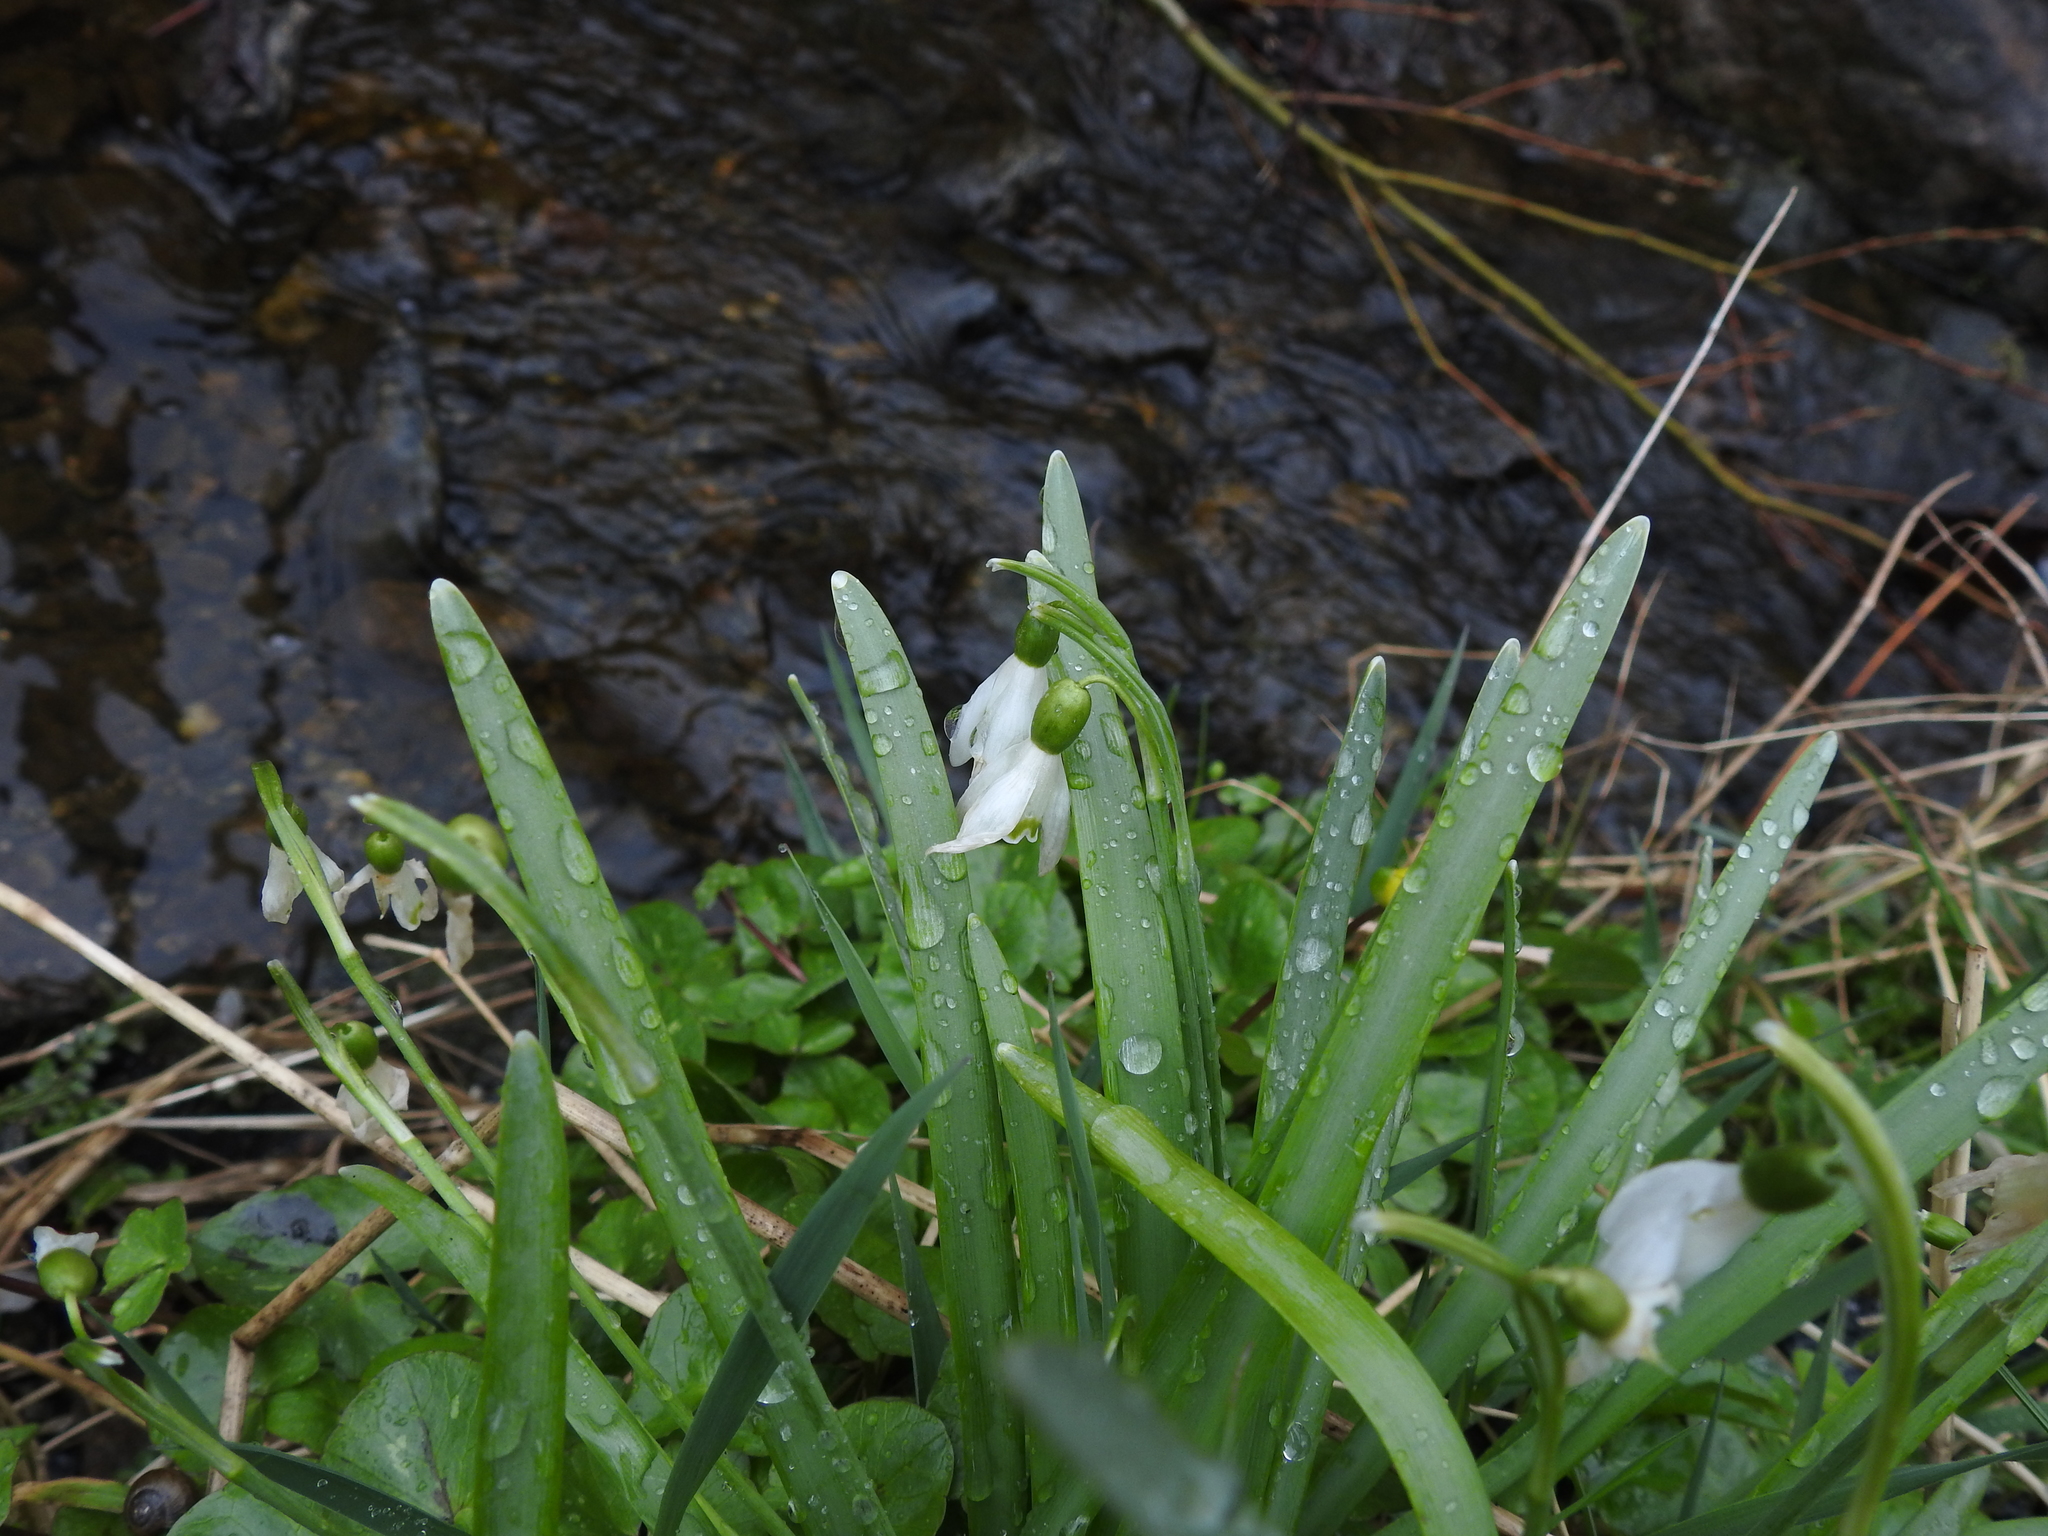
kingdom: Plantae
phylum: Tracheophyta
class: Liliopsida
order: Asparagales
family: Amaryllidaceae
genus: Galanthus
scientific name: Galanthus nivalis
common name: Snowdrop
